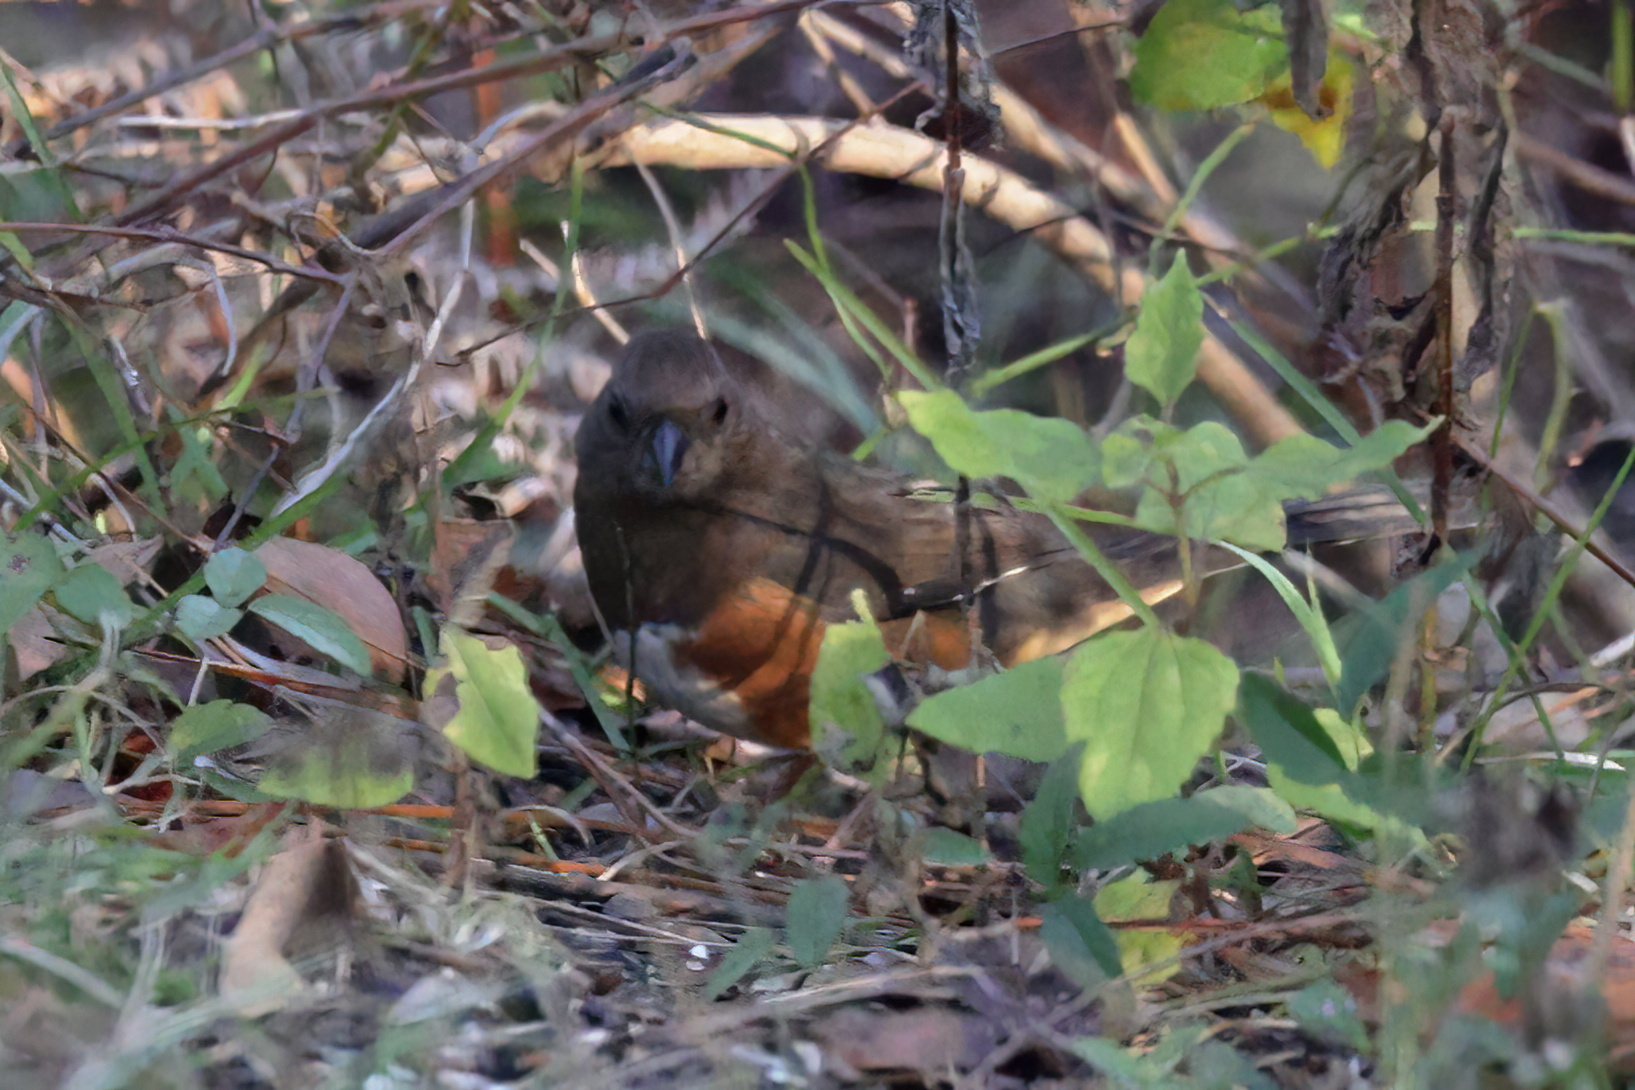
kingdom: Animalia
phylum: Chordata
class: Aves
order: Passeriformes
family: Passerellidae
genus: Pipilo
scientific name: Pipilo erythrophthalmus
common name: Eastern towhee
